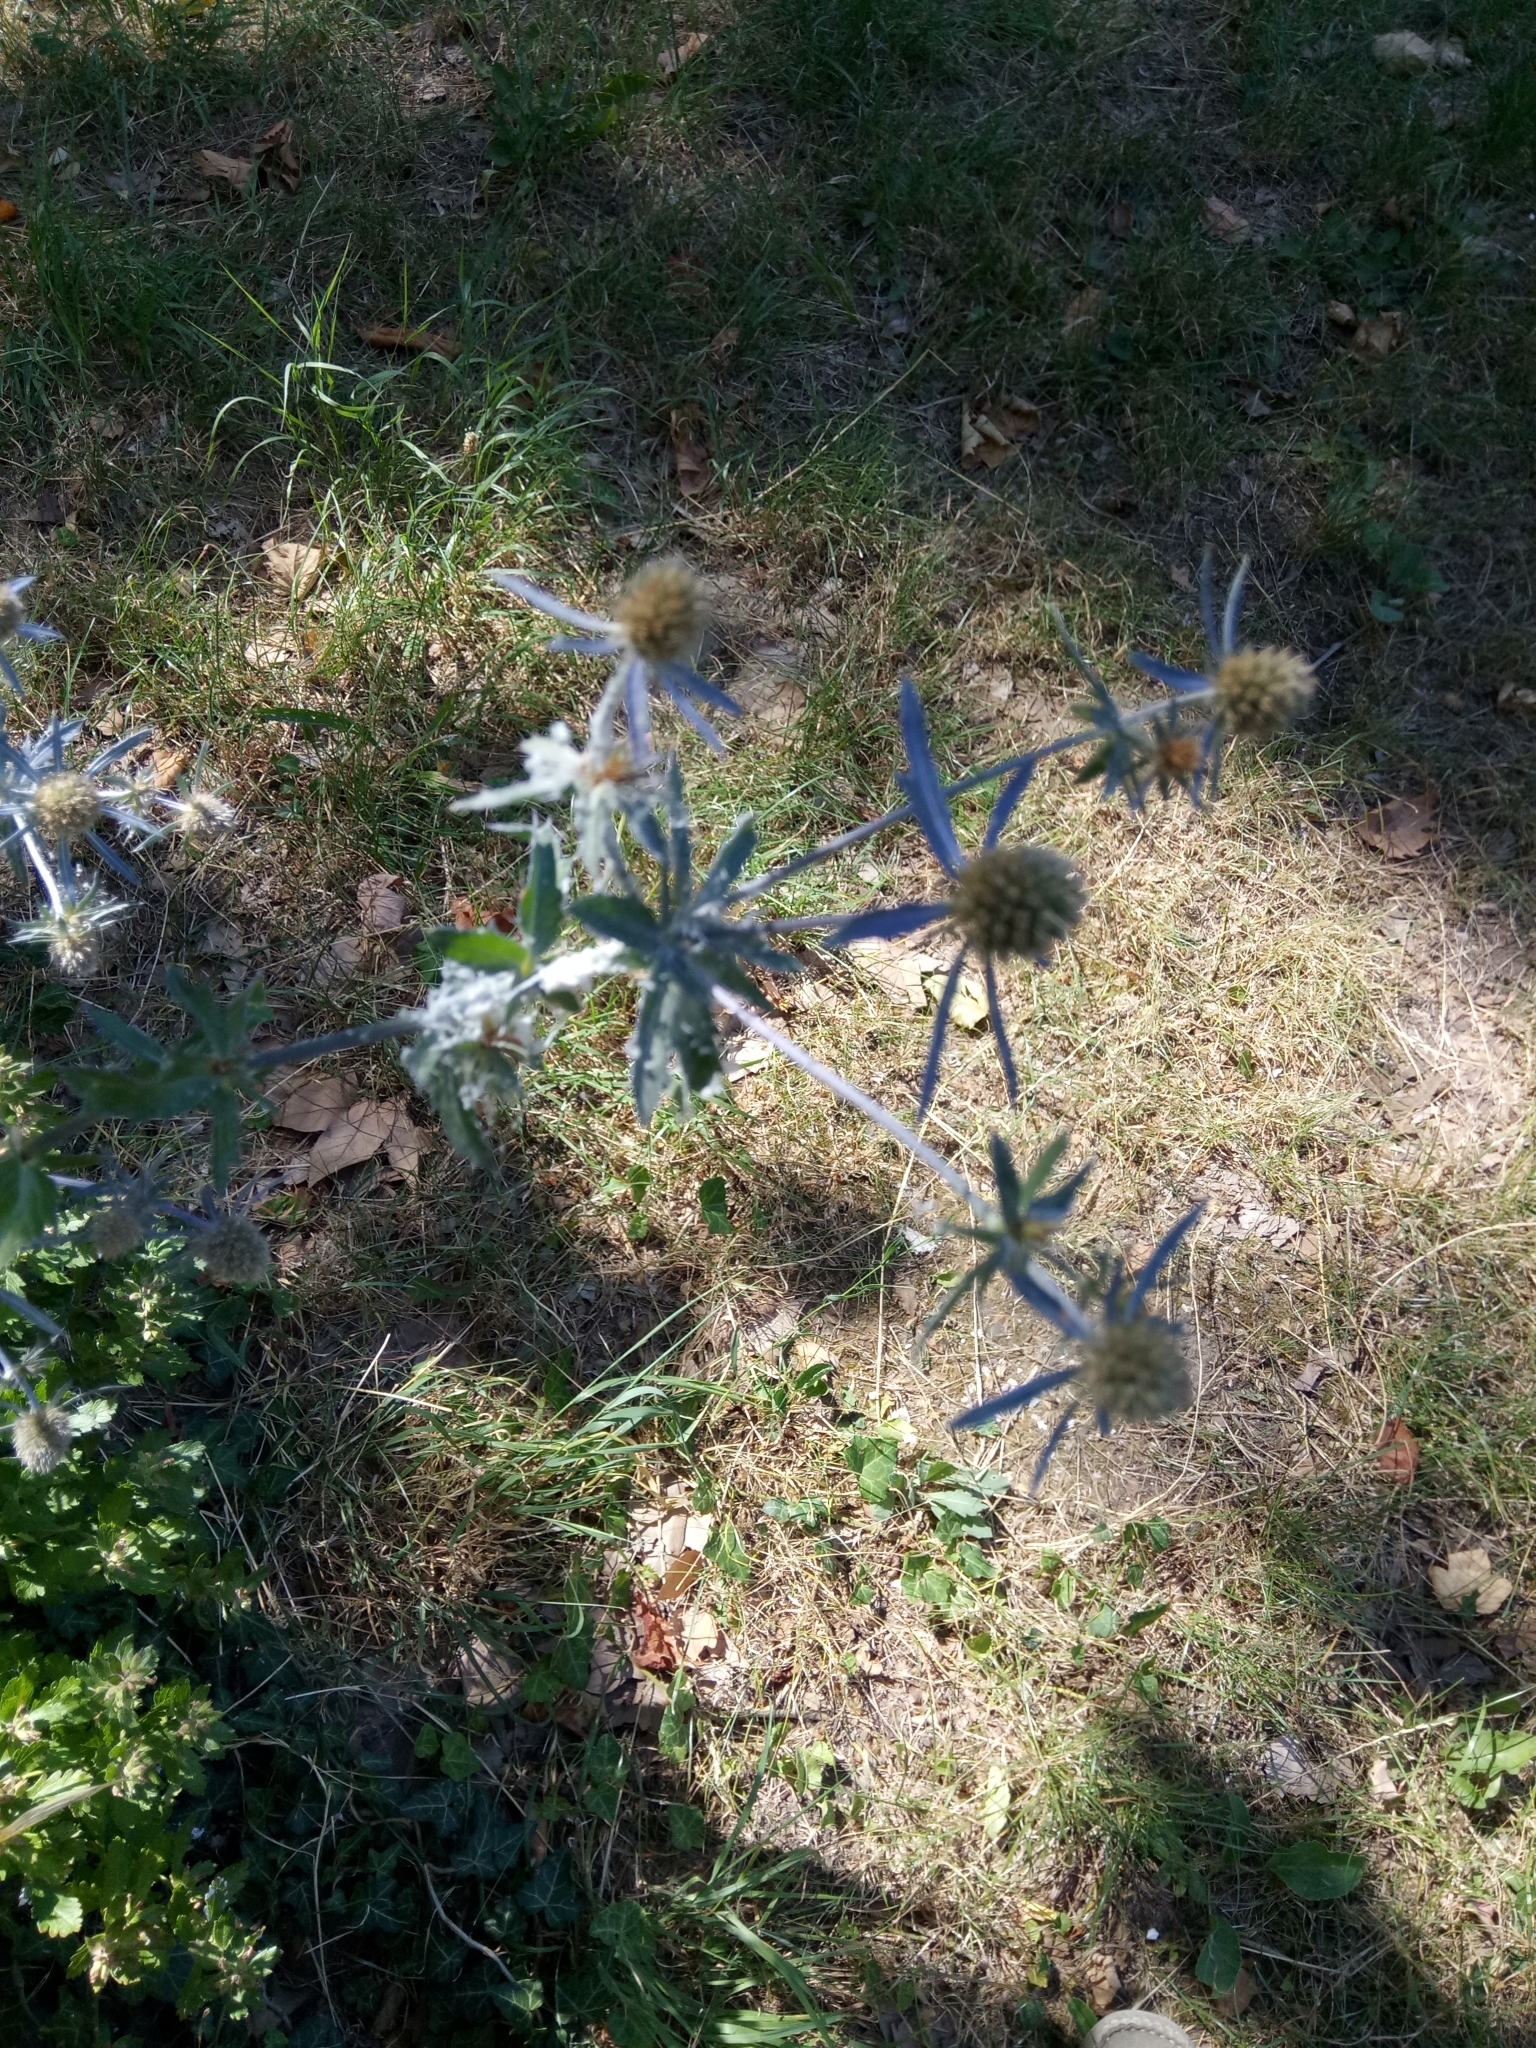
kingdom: Plantae
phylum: Tracheophyta
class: Magnoliopsida
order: Apiales
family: Apiaceae
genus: Eryngium
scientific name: Eryngium planum
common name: Blue eryngo
